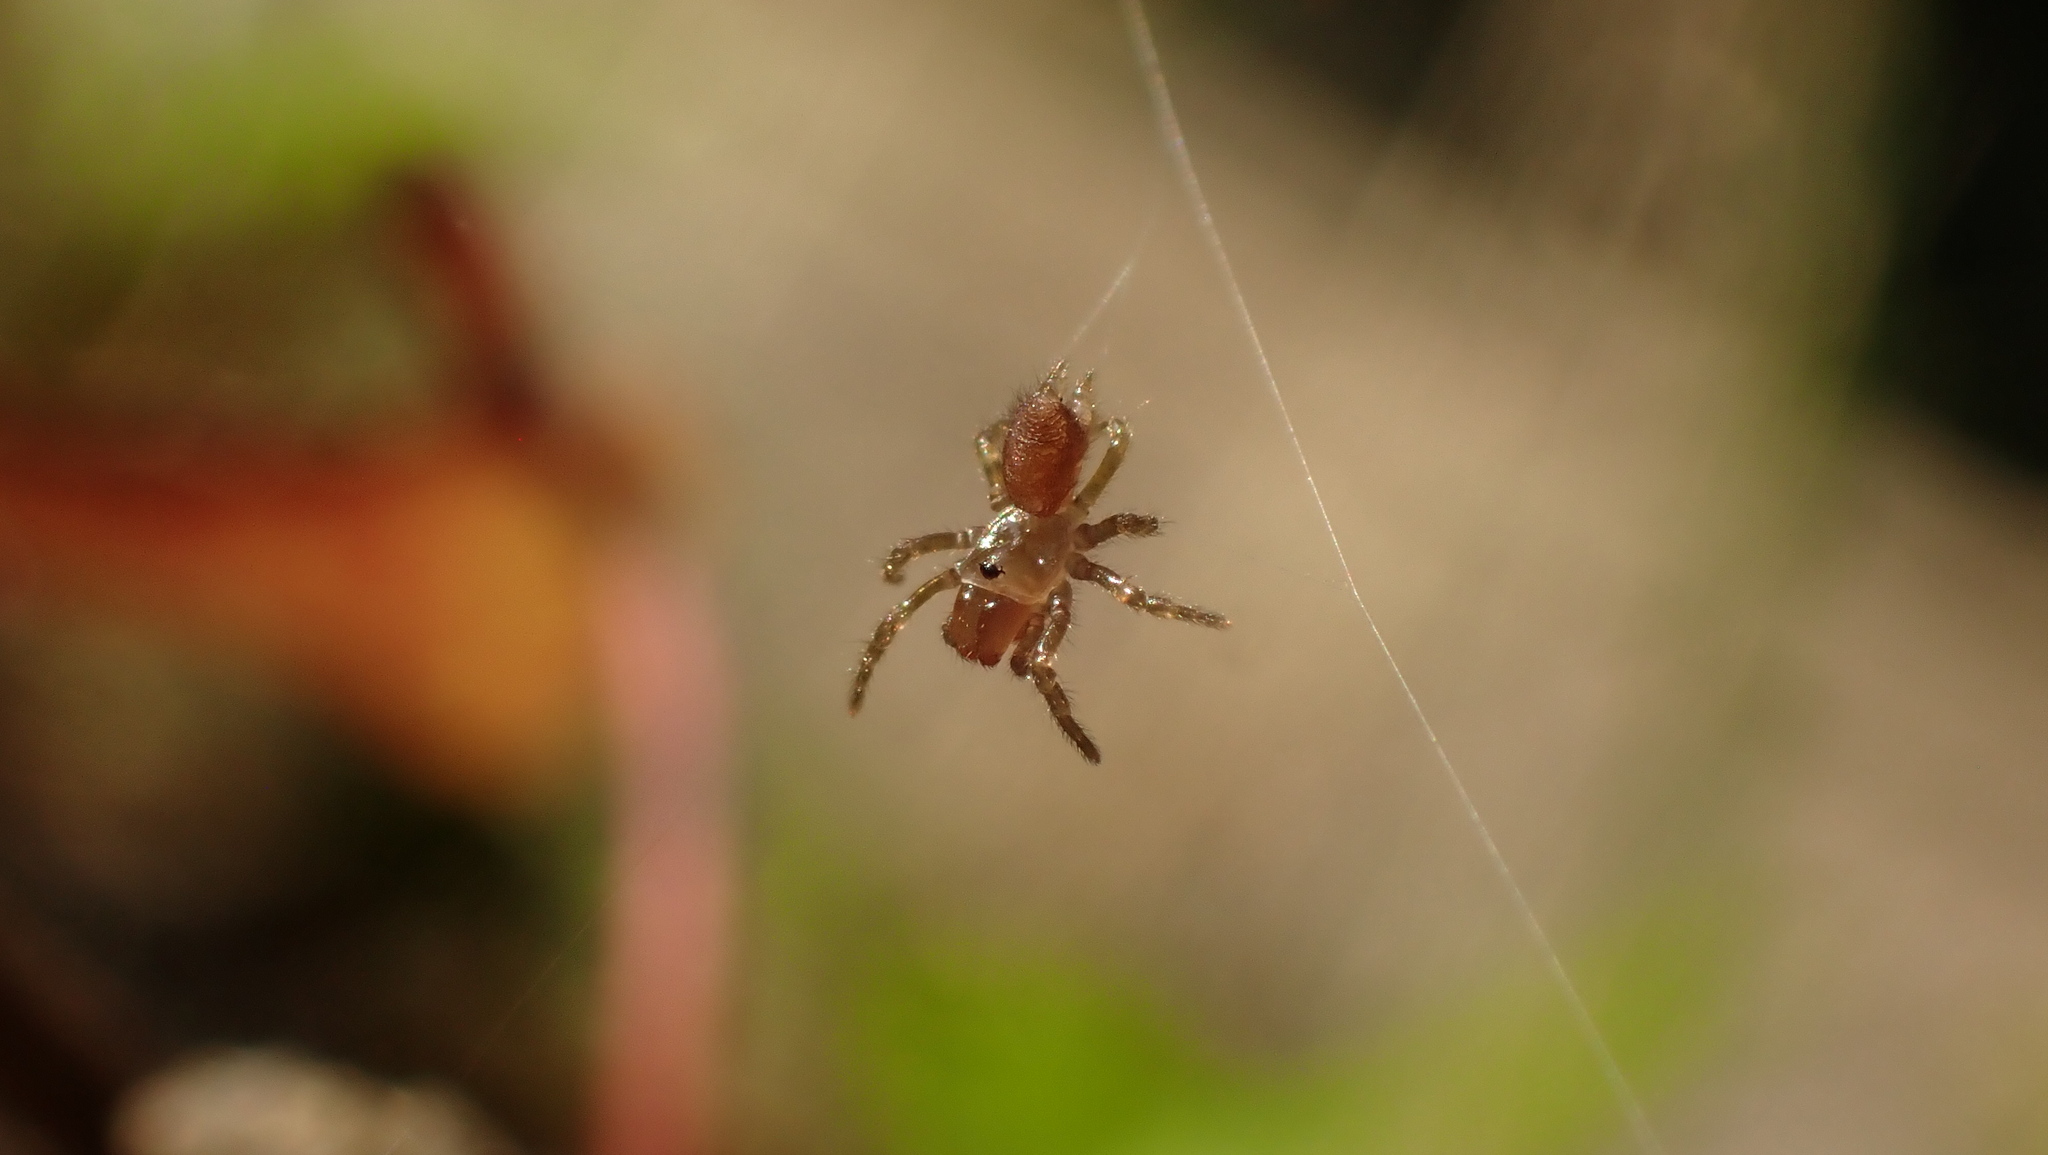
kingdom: Animalia
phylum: Arthropoda
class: Arachnida
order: Araneae
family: Atypidae
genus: Atypus
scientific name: Atypus affinis
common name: Purse web spider
